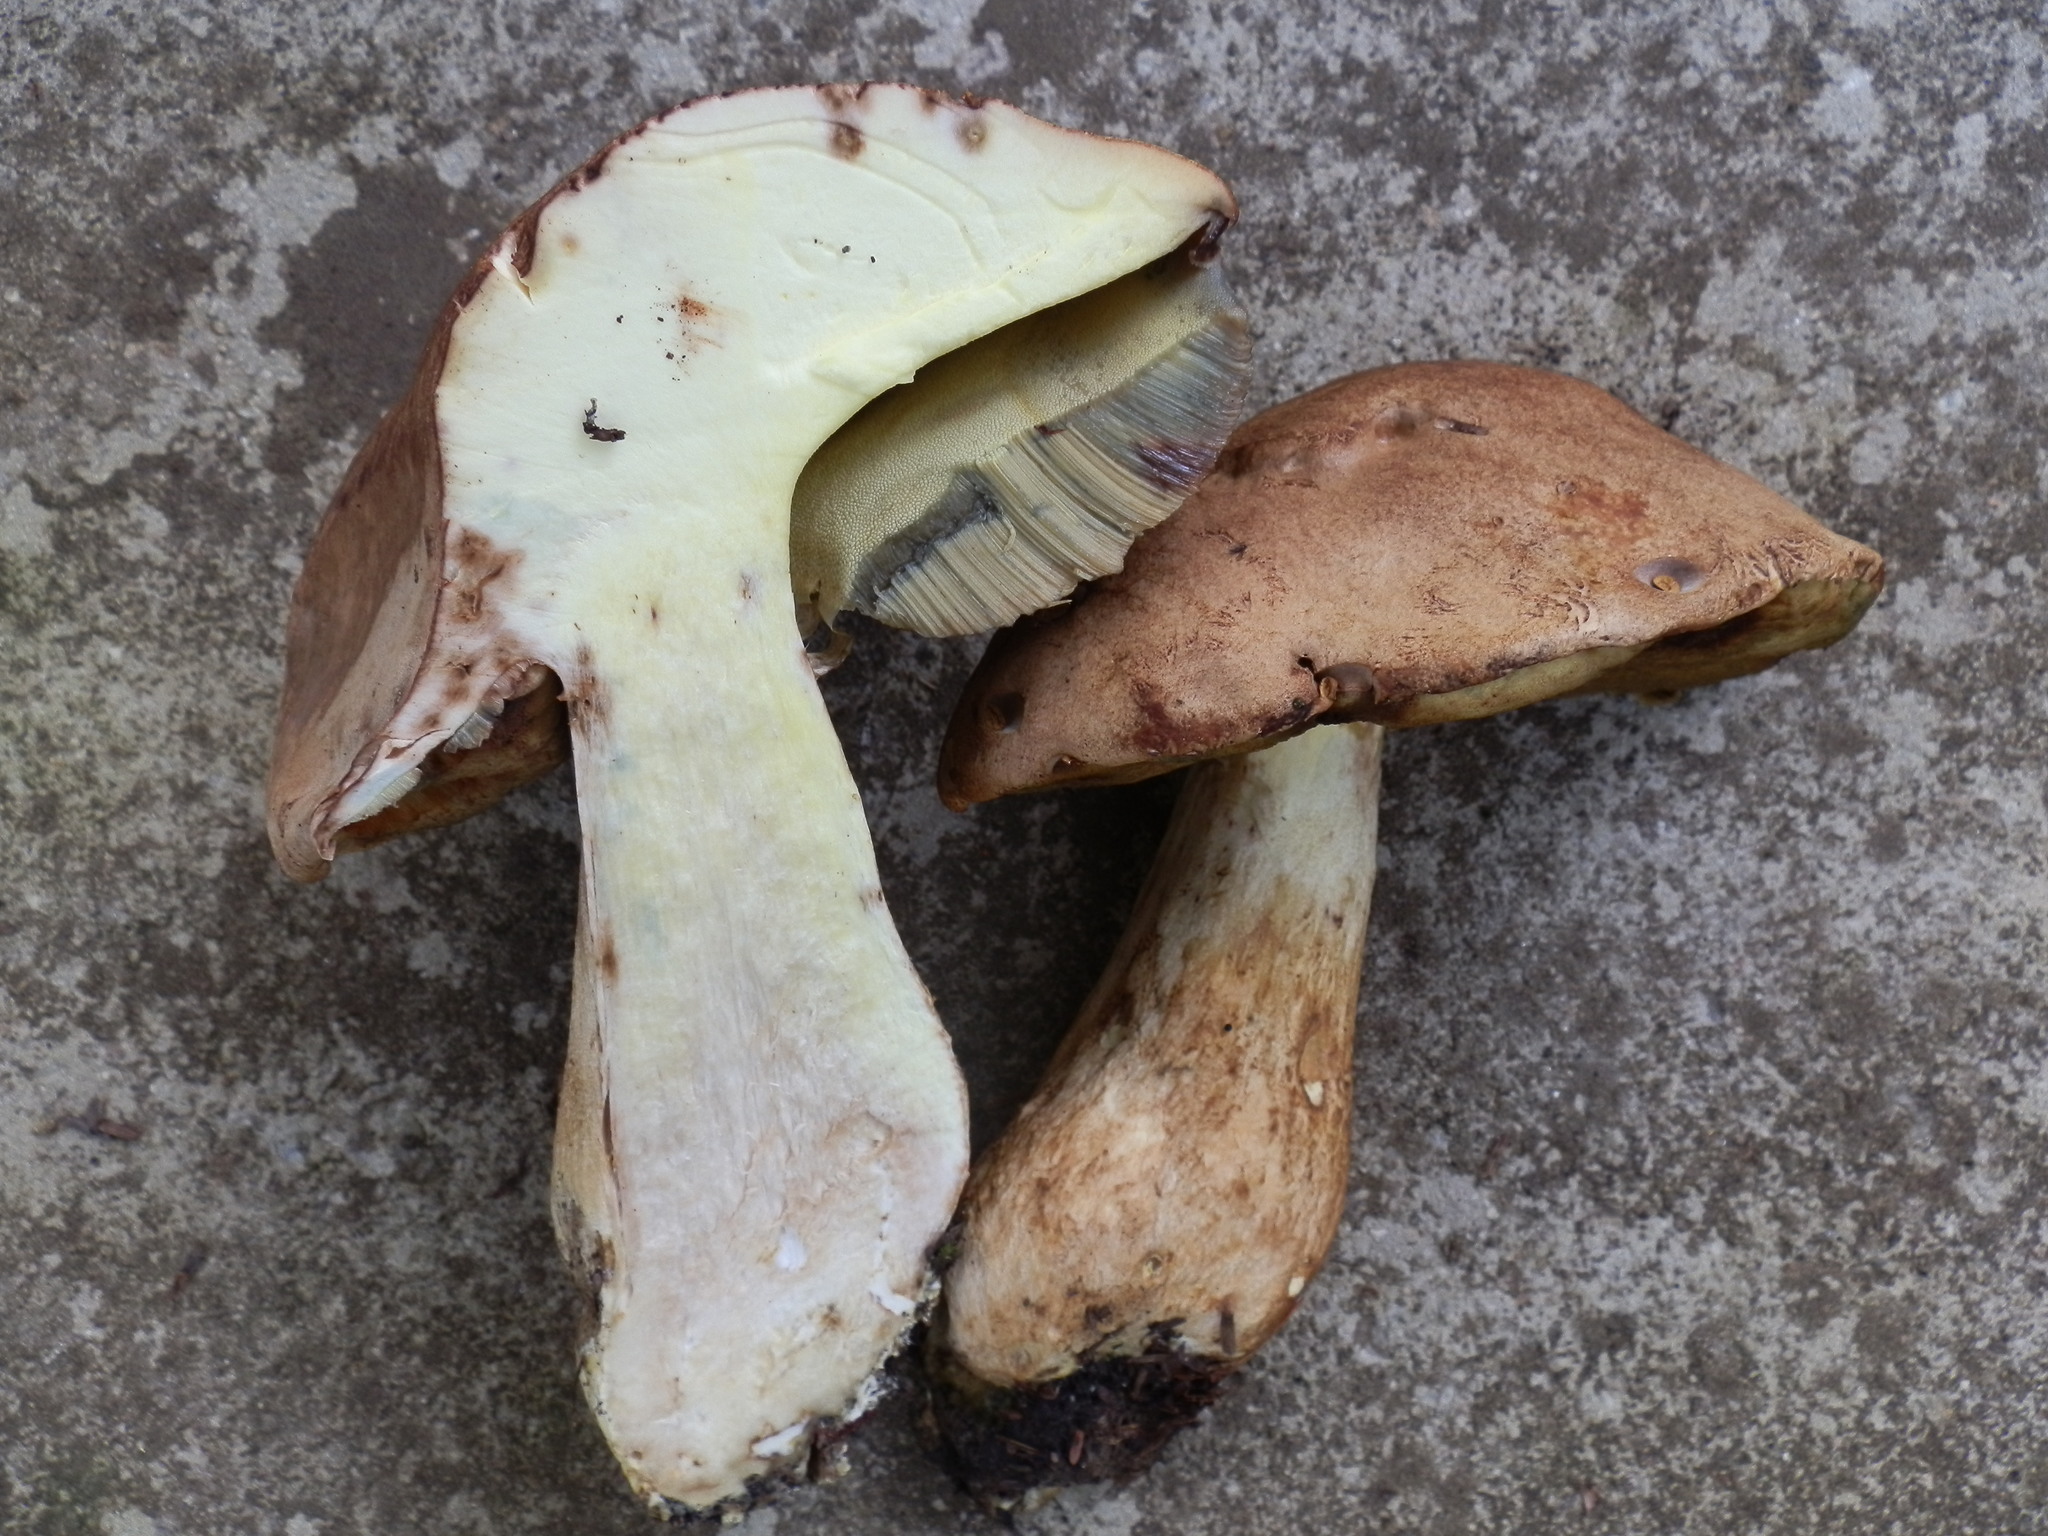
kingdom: Fungi
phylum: Basidiomycota
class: Agaricomycetes
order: Boletales
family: Boletaceae
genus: Boletus
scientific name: Boletus huronensis
